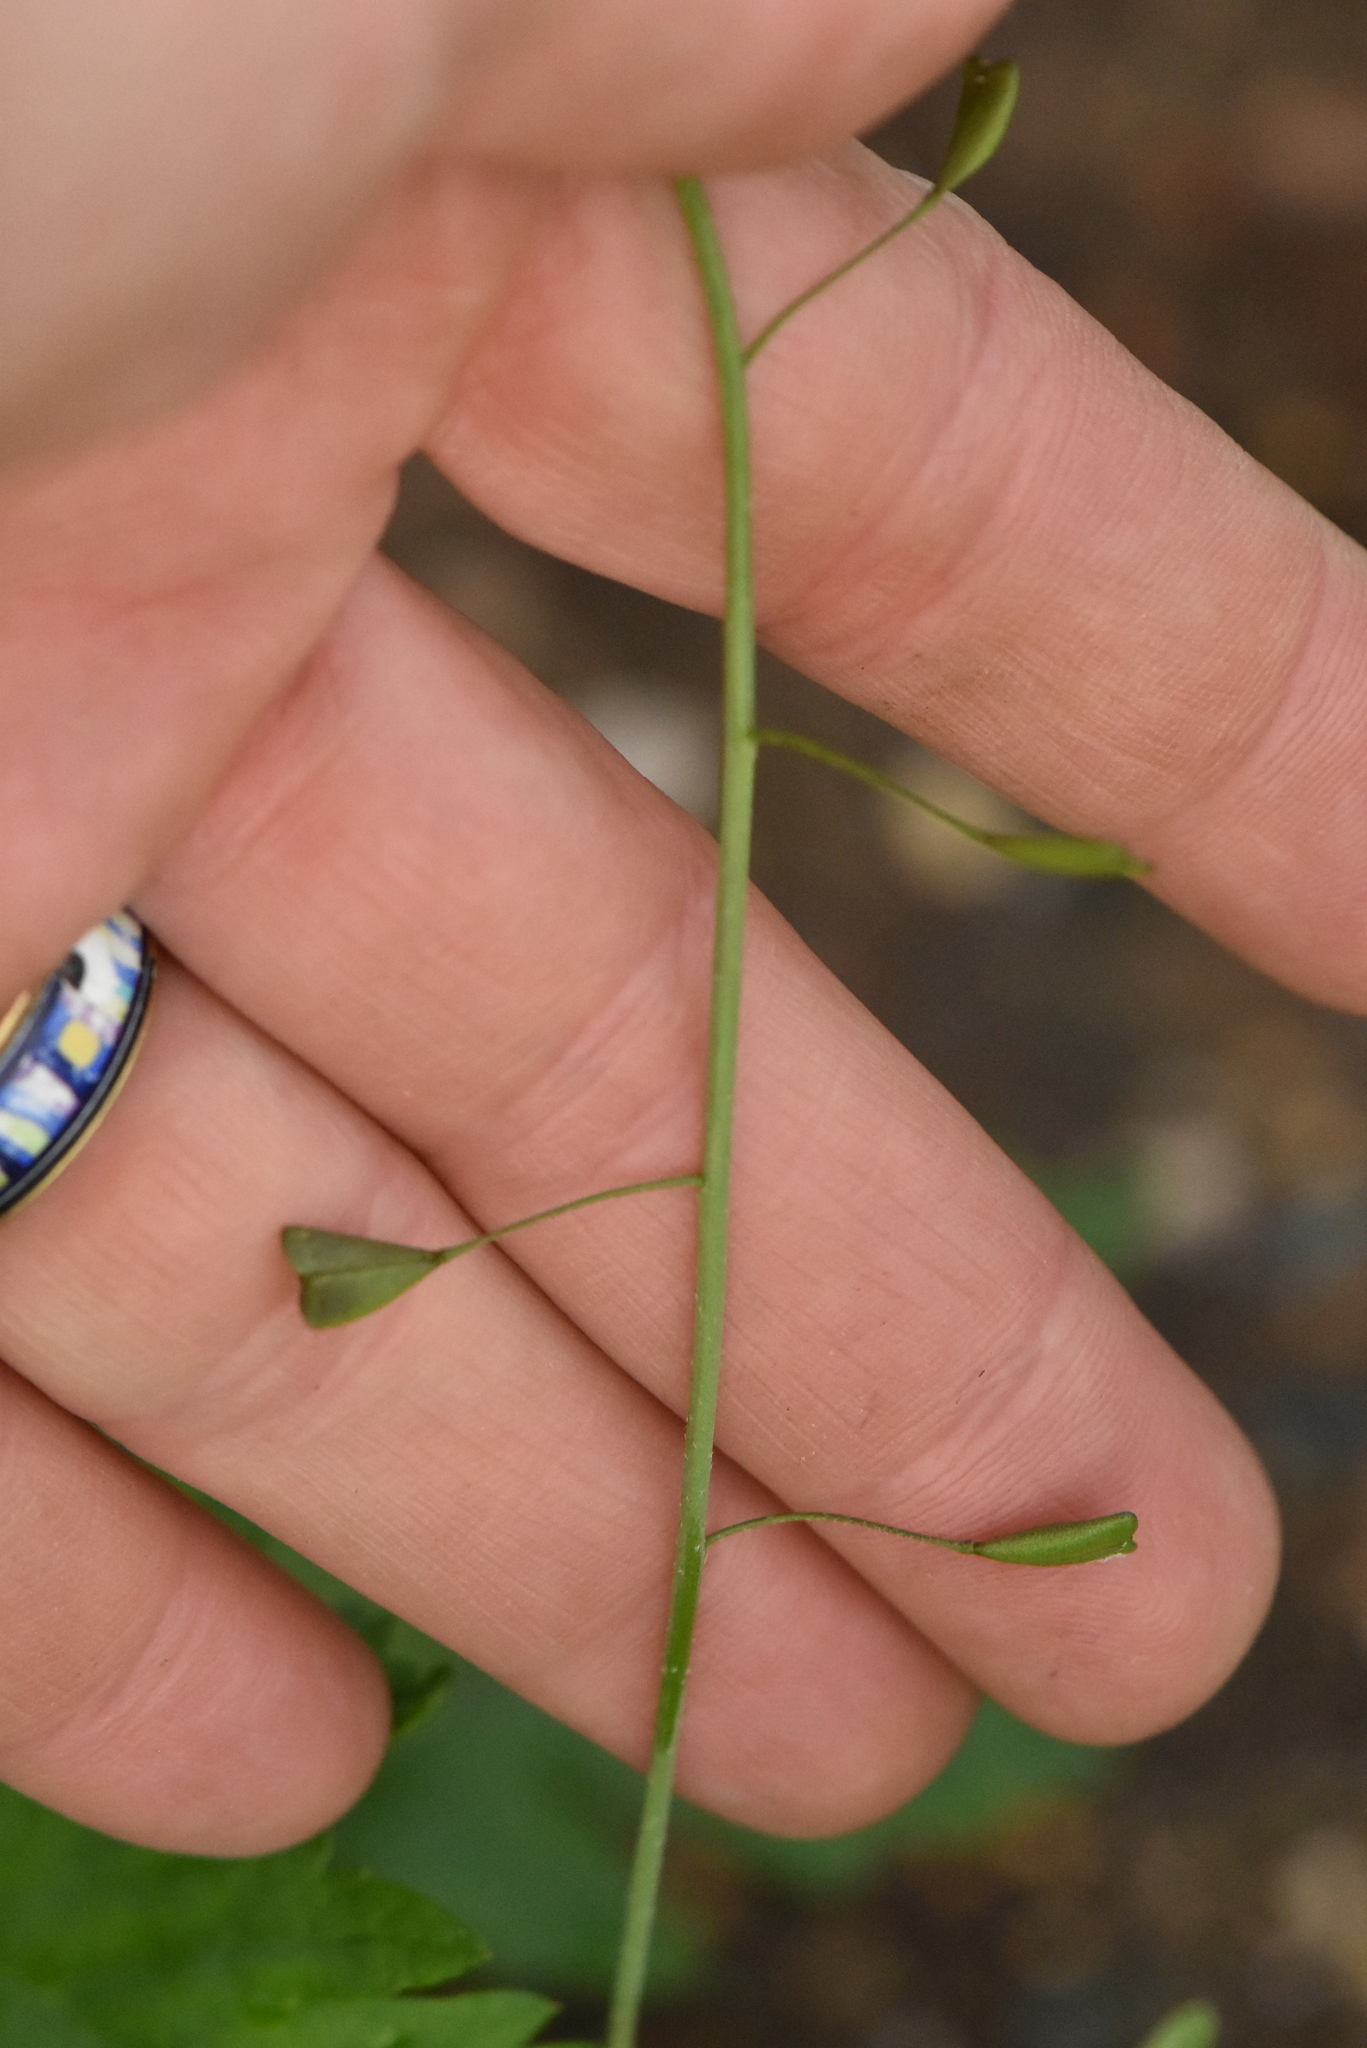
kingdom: Plantae
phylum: Tracheophyta
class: Magnoliopsida
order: Brassicales
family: Brassicaceae
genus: Capsella
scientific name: Capsella bursa-pastoris
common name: Shepherd's purse
